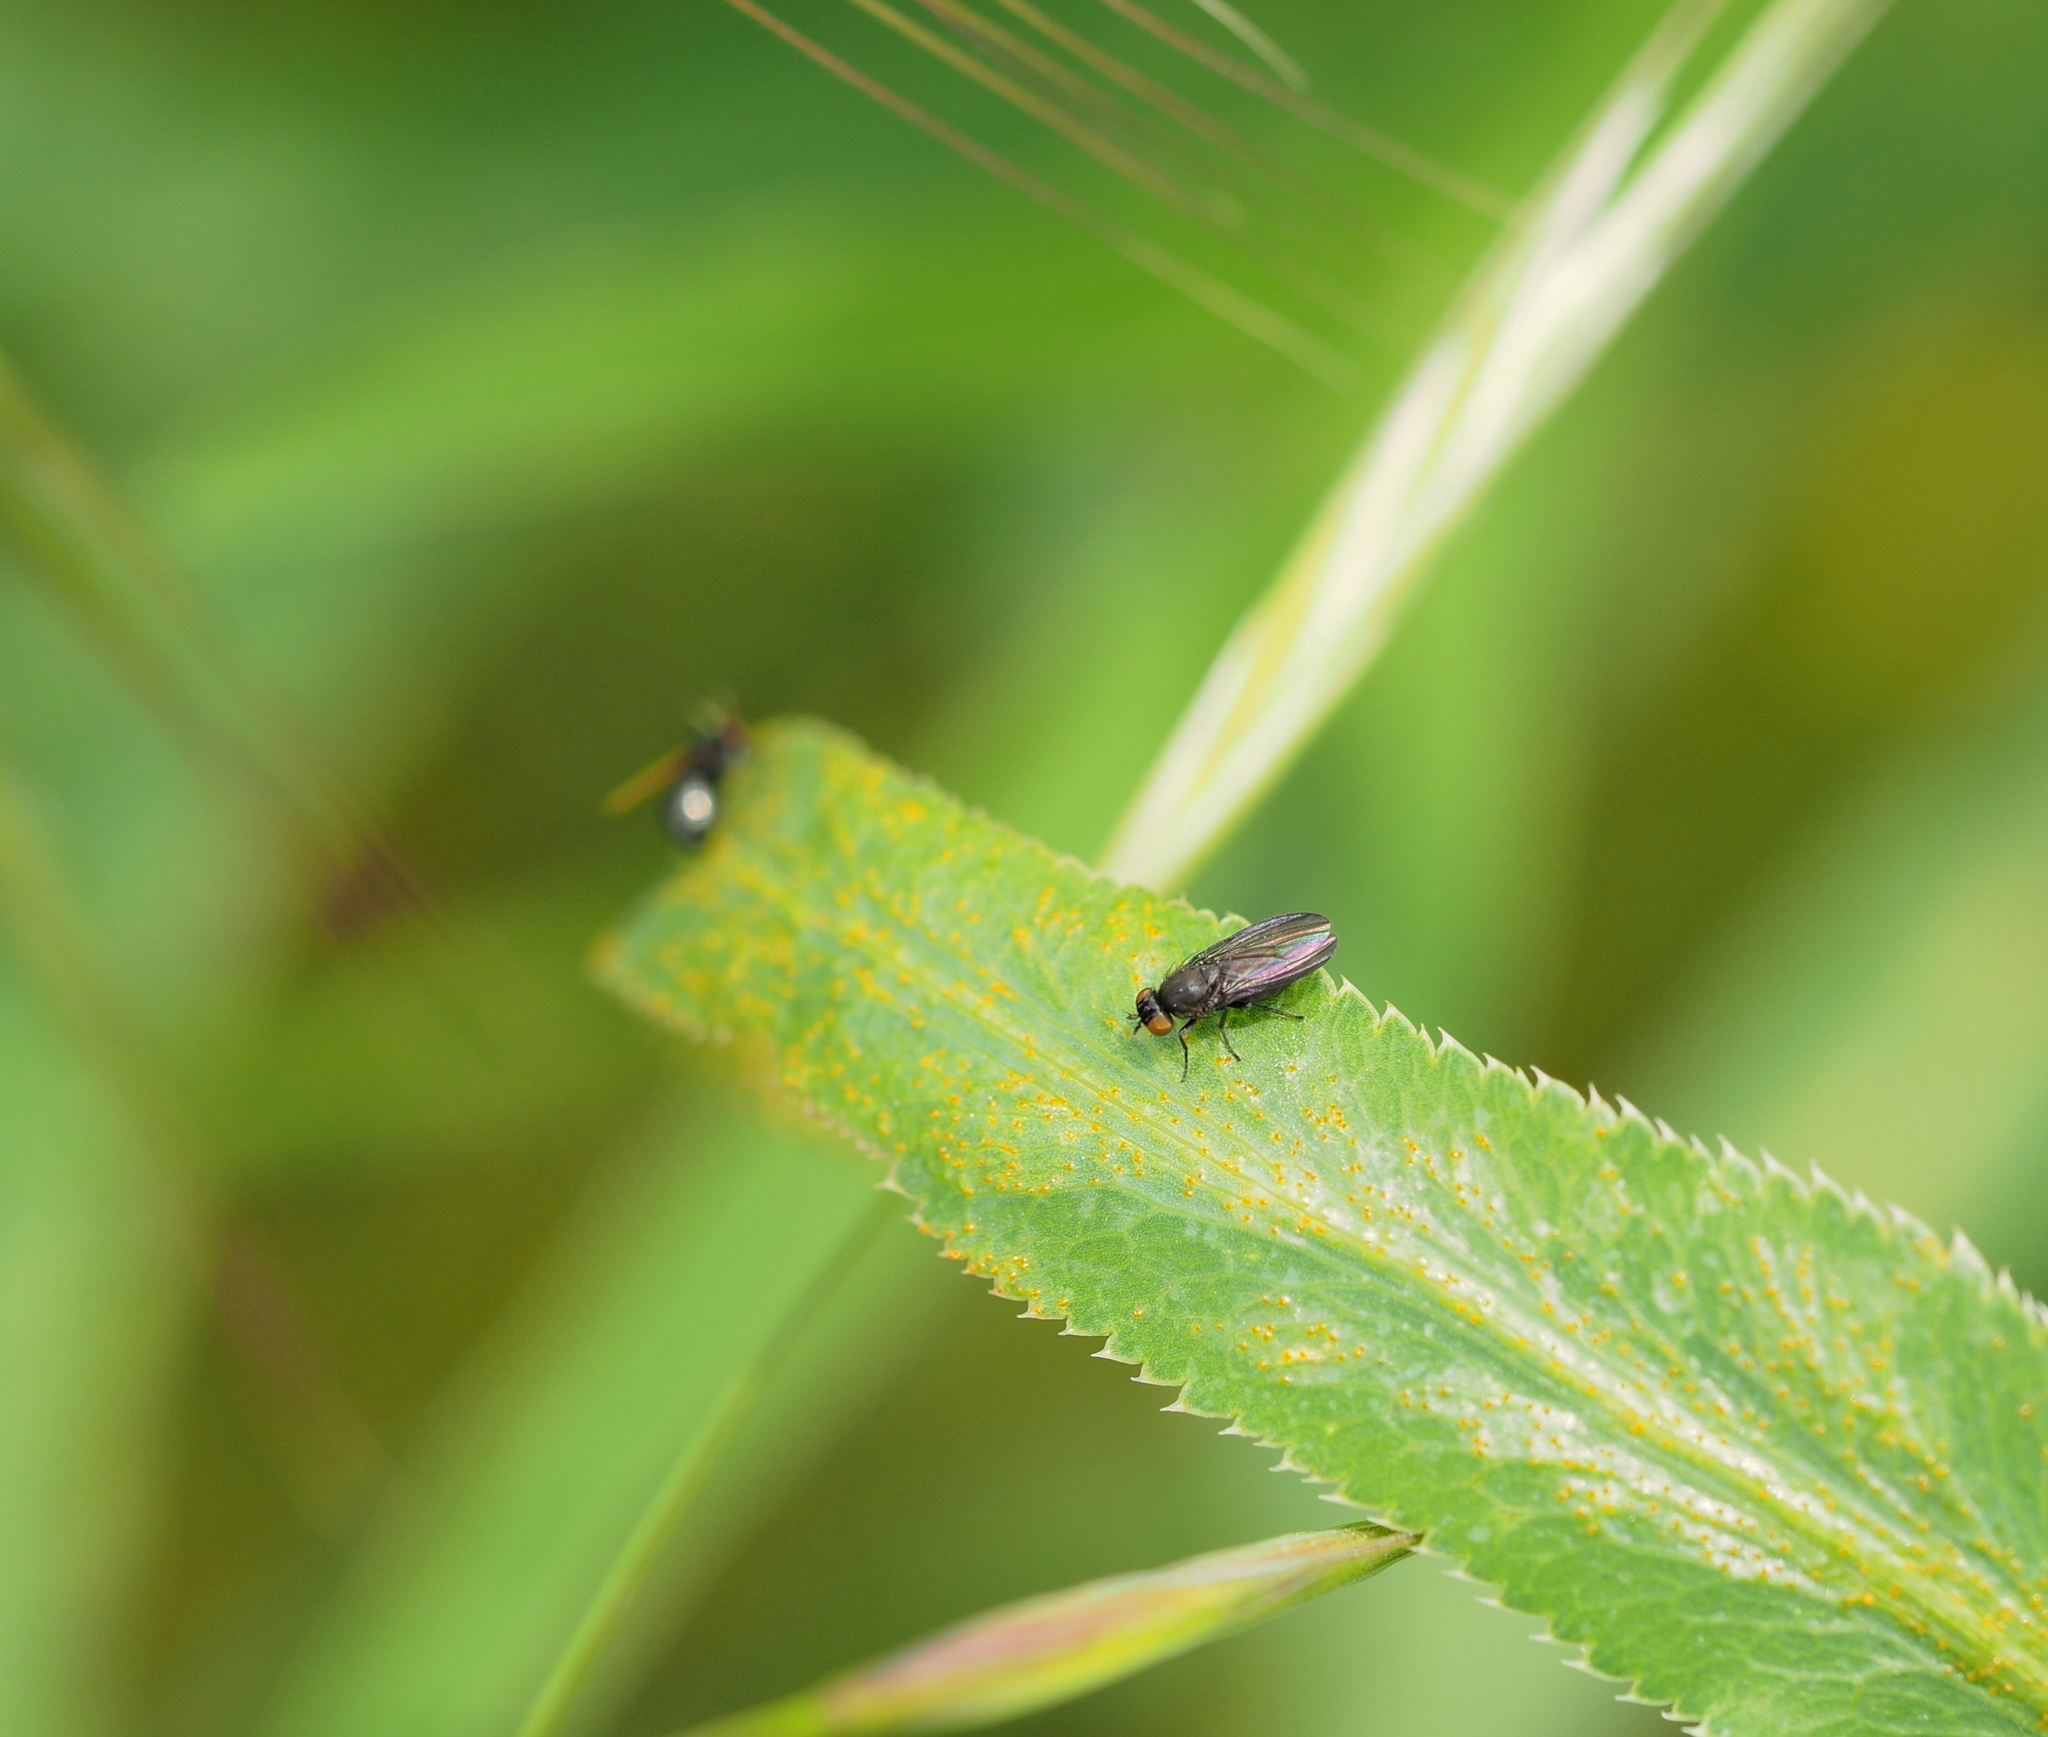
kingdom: Animalia
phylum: Arthropoda
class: Insecta
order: Diptera
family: Lauxaniidae
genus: Cnemacantha
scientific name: Cnemacantha muscaria
